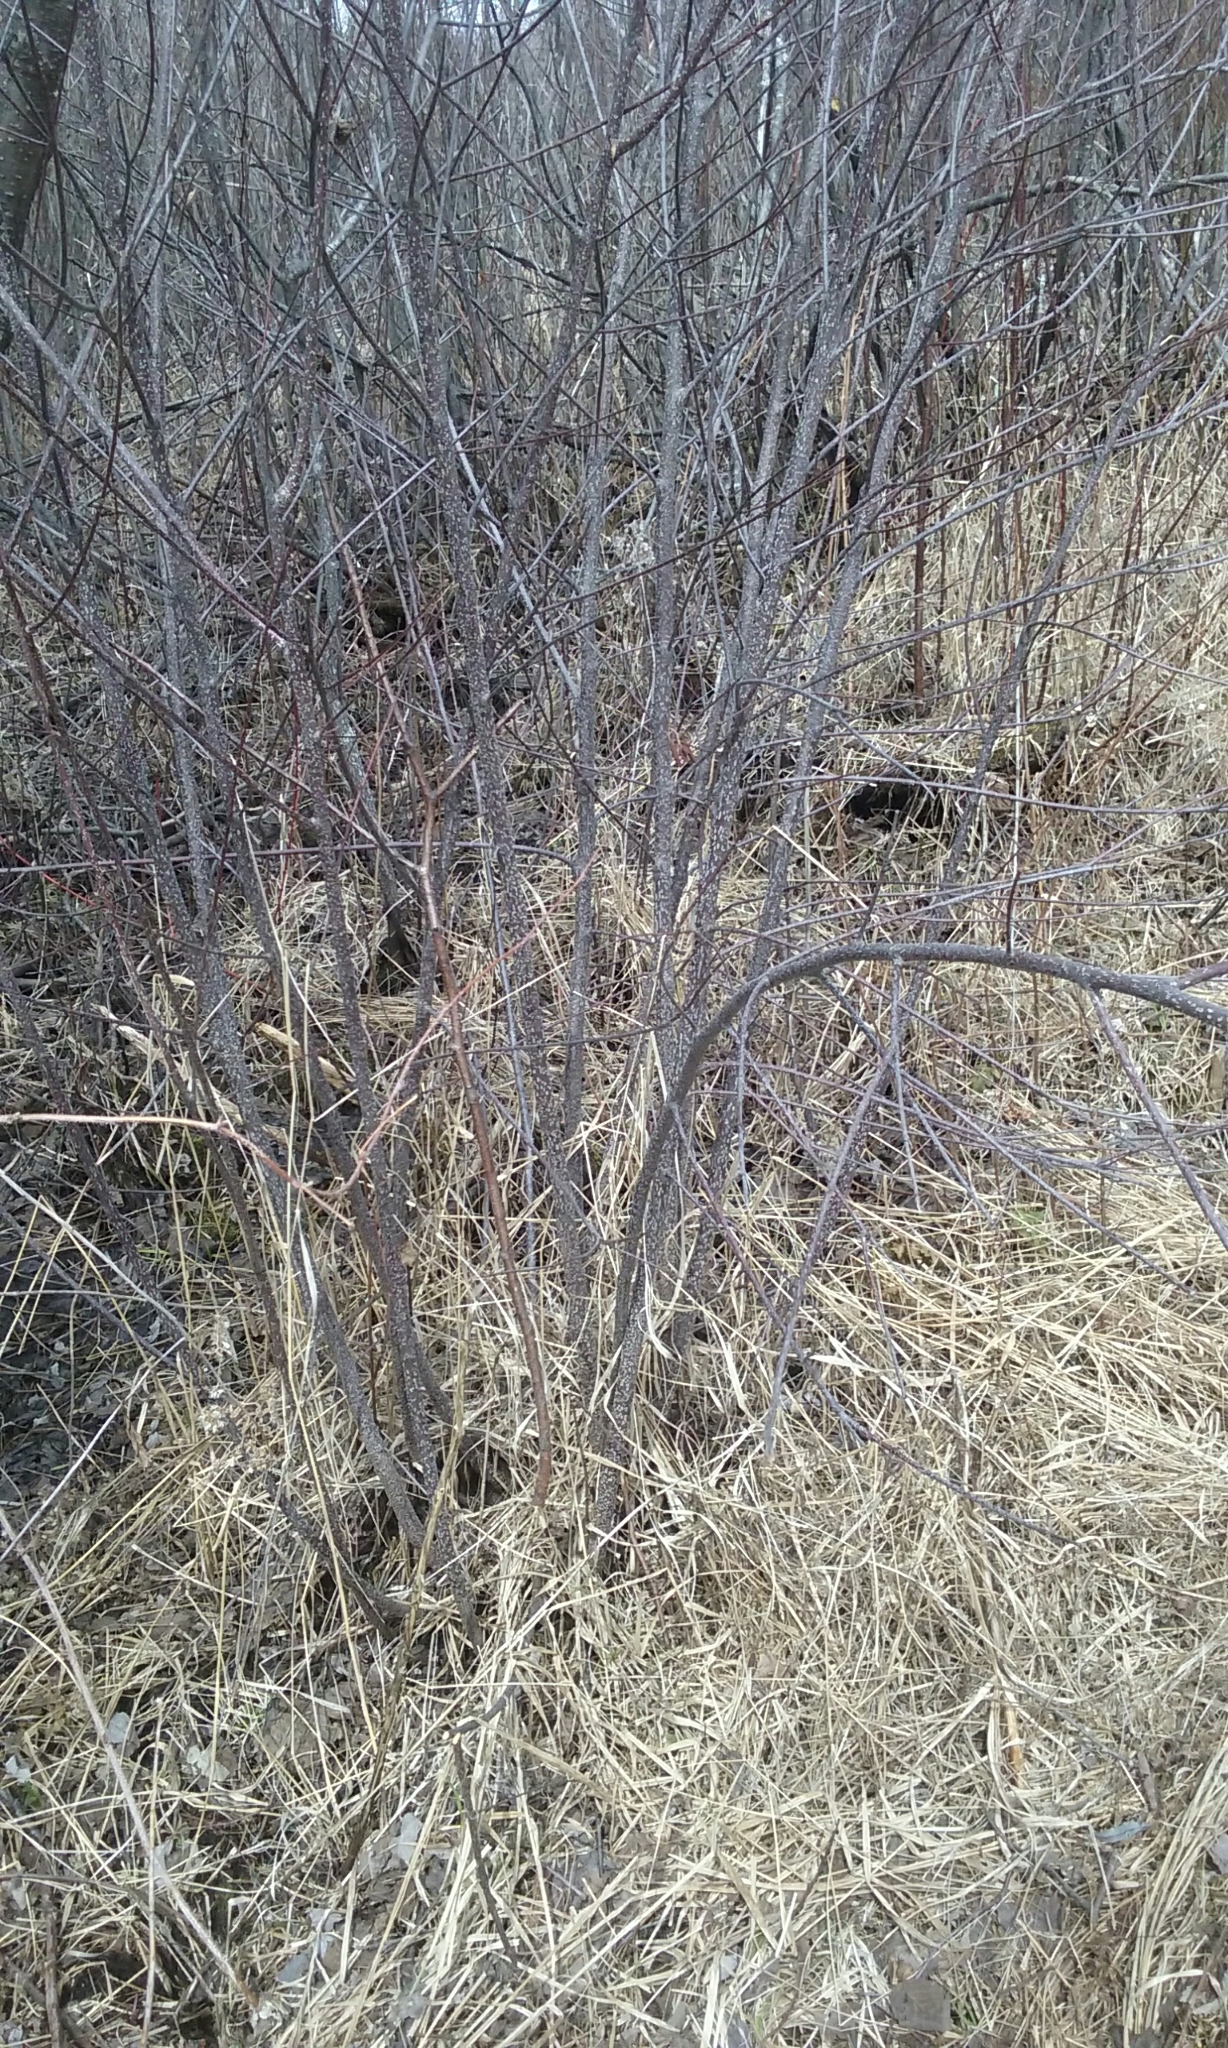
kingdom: Plantae
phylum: Tracheophyta
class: Magnoliopsida
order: Rosales
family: Rhamnaceae
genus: Frangula
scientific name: Frangula alnus
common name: Alder buckthorn
